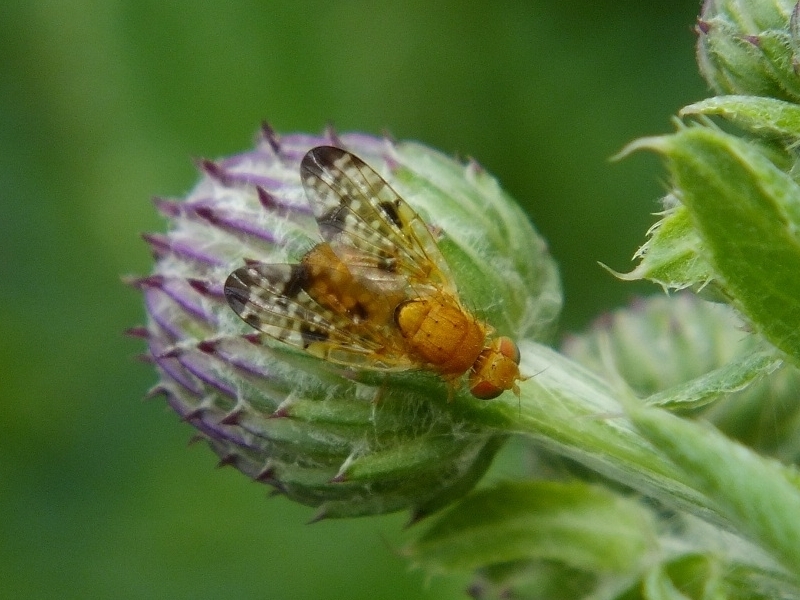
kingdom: Animalia
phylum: Arthropoda
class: Insecta
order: Diptera
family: Tephritidae
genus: Xyphosia
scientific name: Xyphosia miliaria
